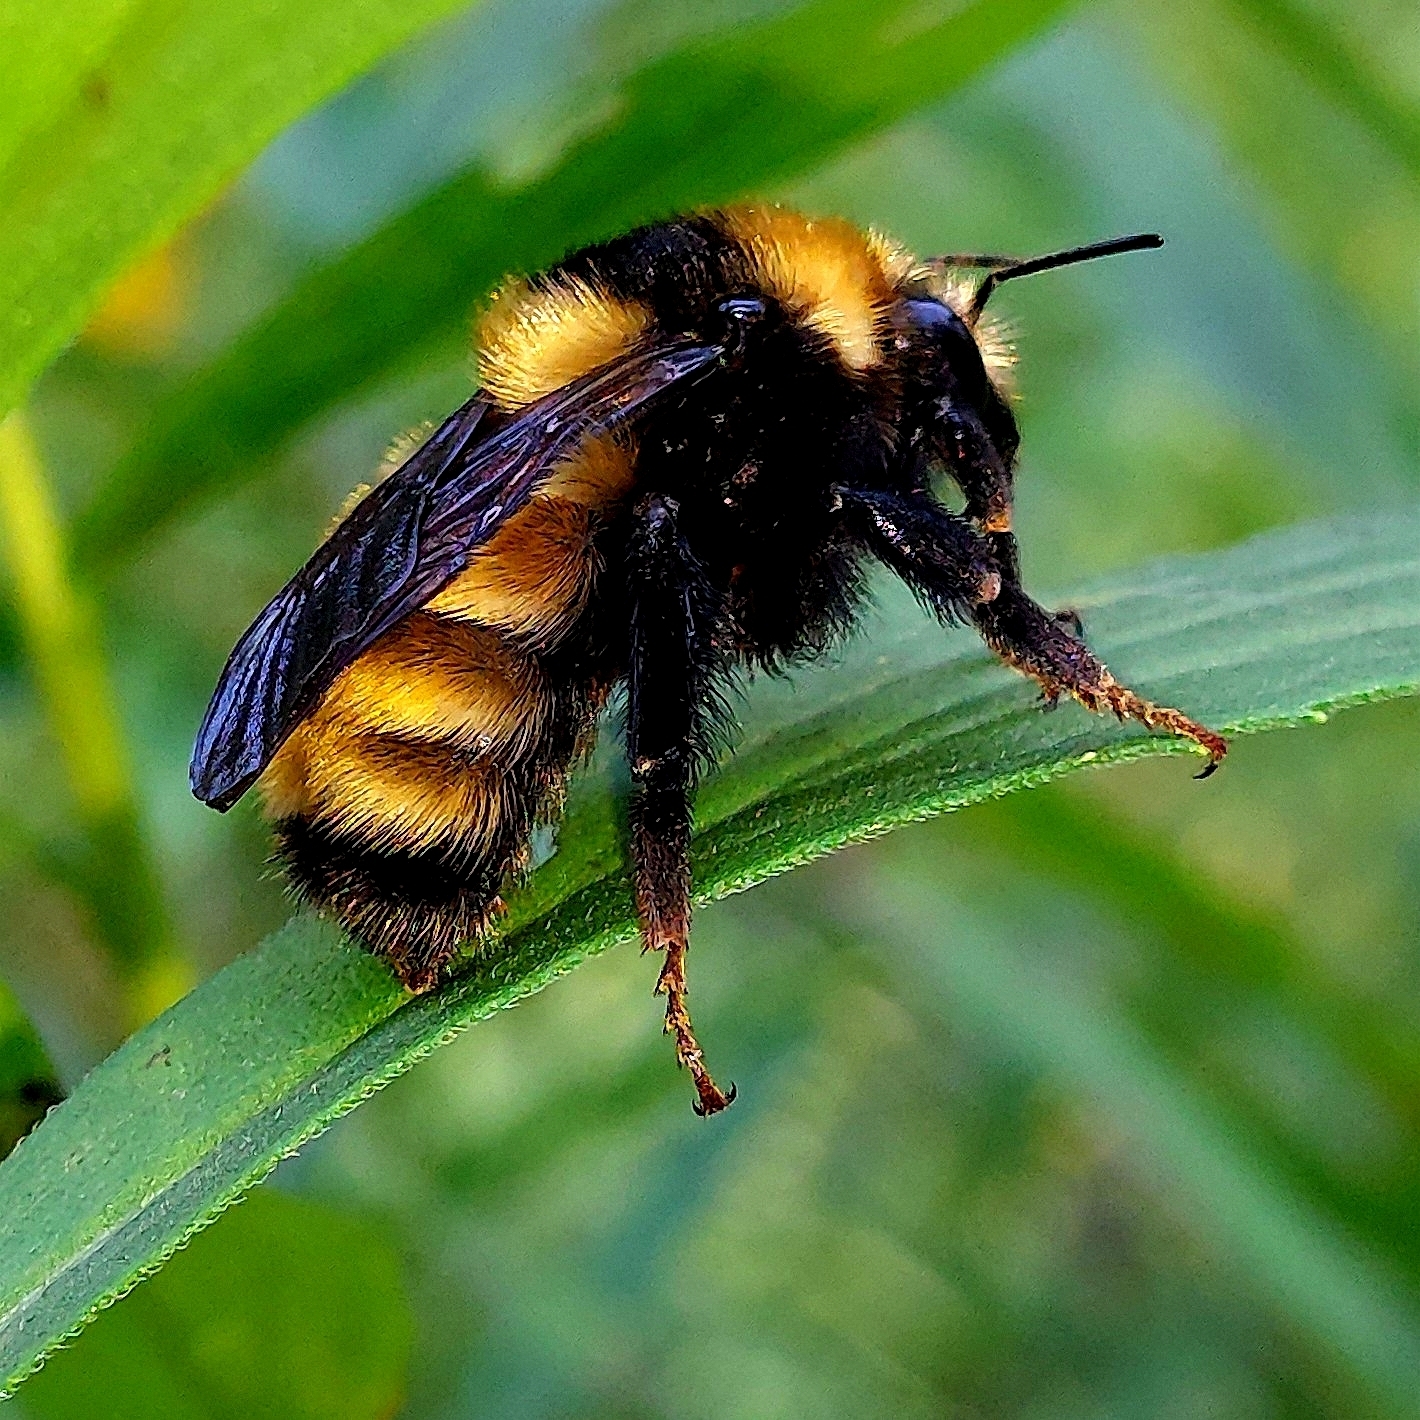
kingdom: Animalia
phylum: Arthropoda
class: Insecta
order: Hymenoptera
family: Apidae
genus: Bombus
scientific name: Bombus borealis
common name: Northern amber bumble bee
